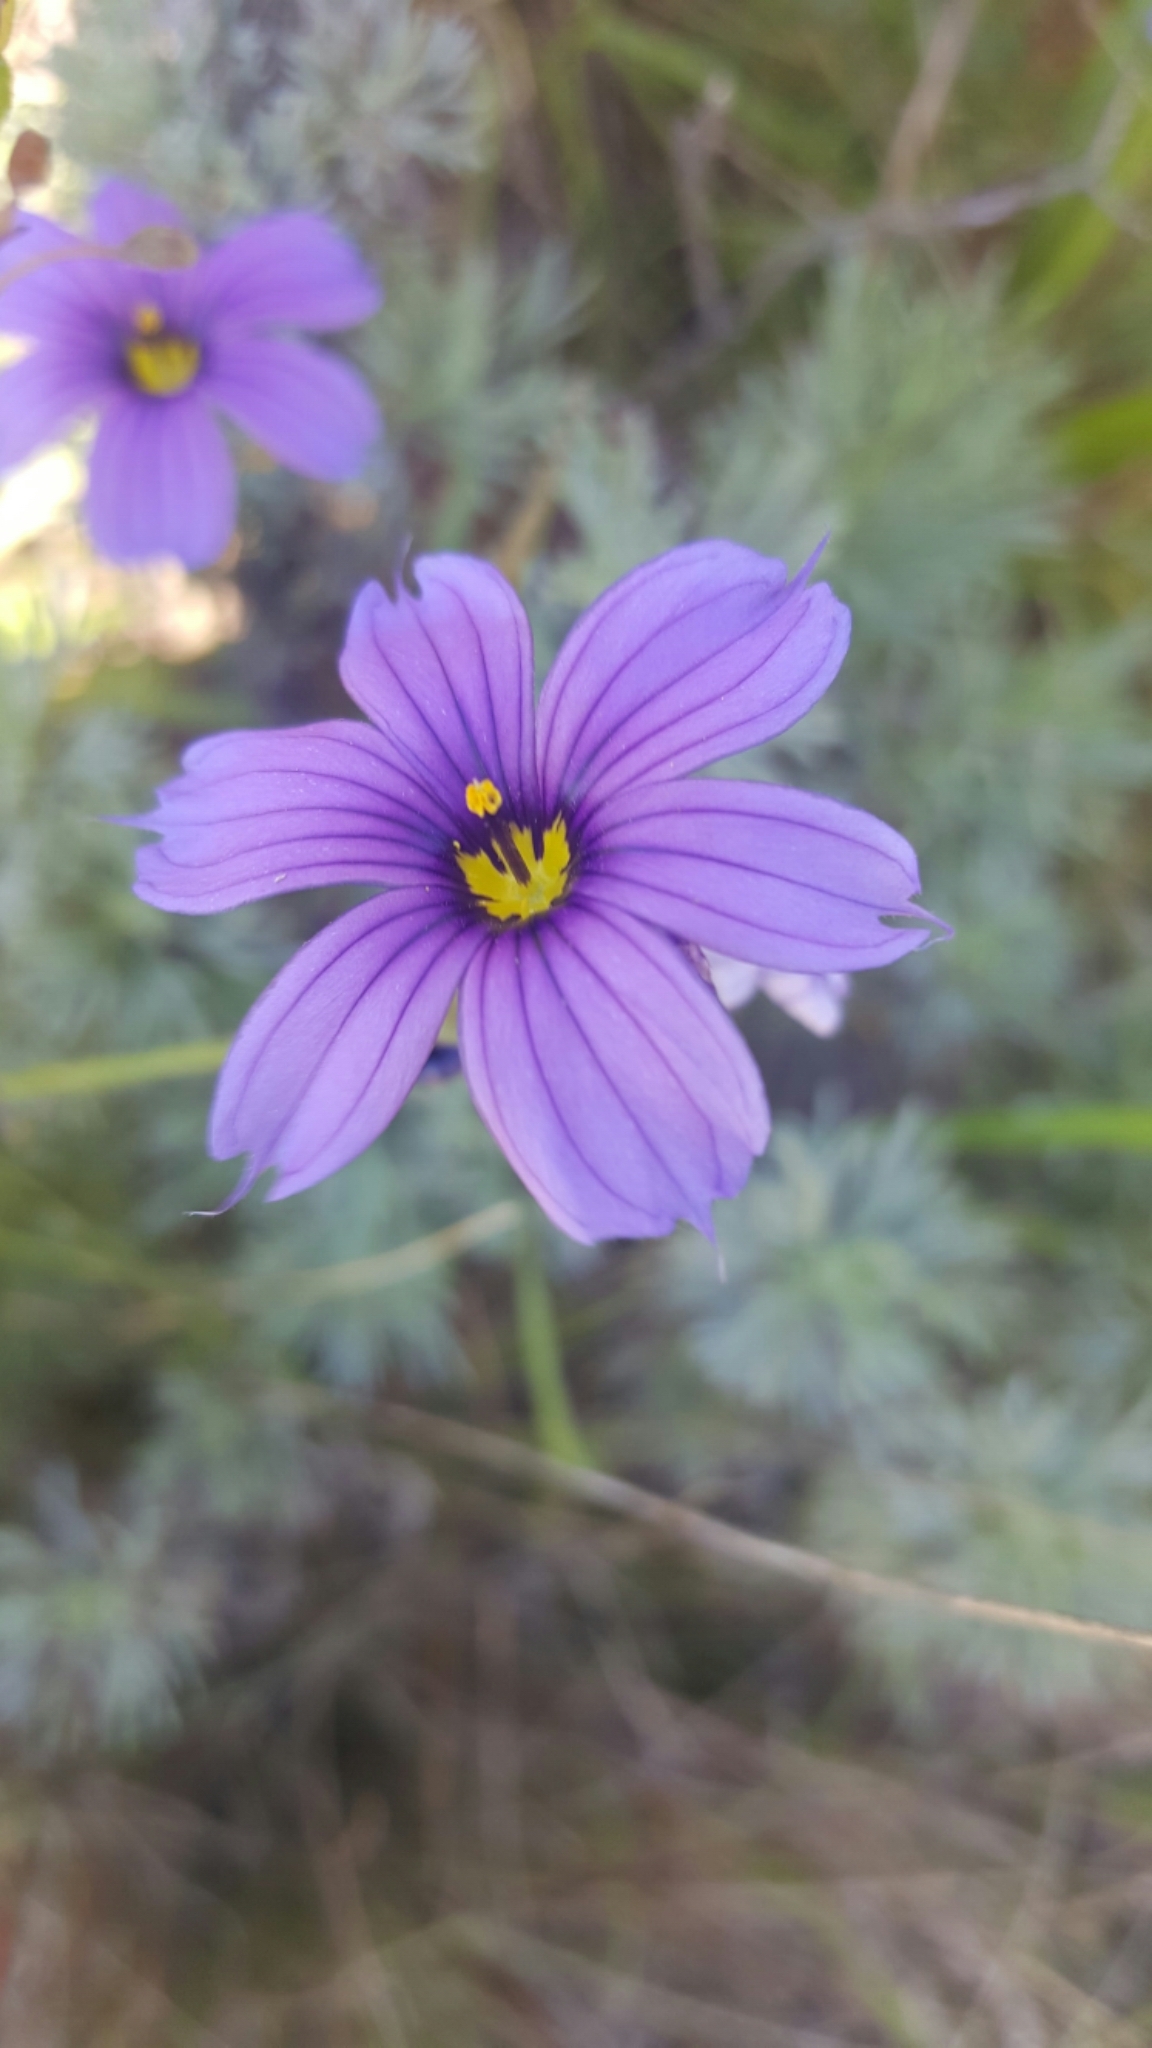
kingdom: Plantae
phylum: Tracheophyta
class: Liliopsida
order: Asparagales
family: Iridaceae
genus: Sisyrinchium
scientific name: Sisyrinchium bellum
